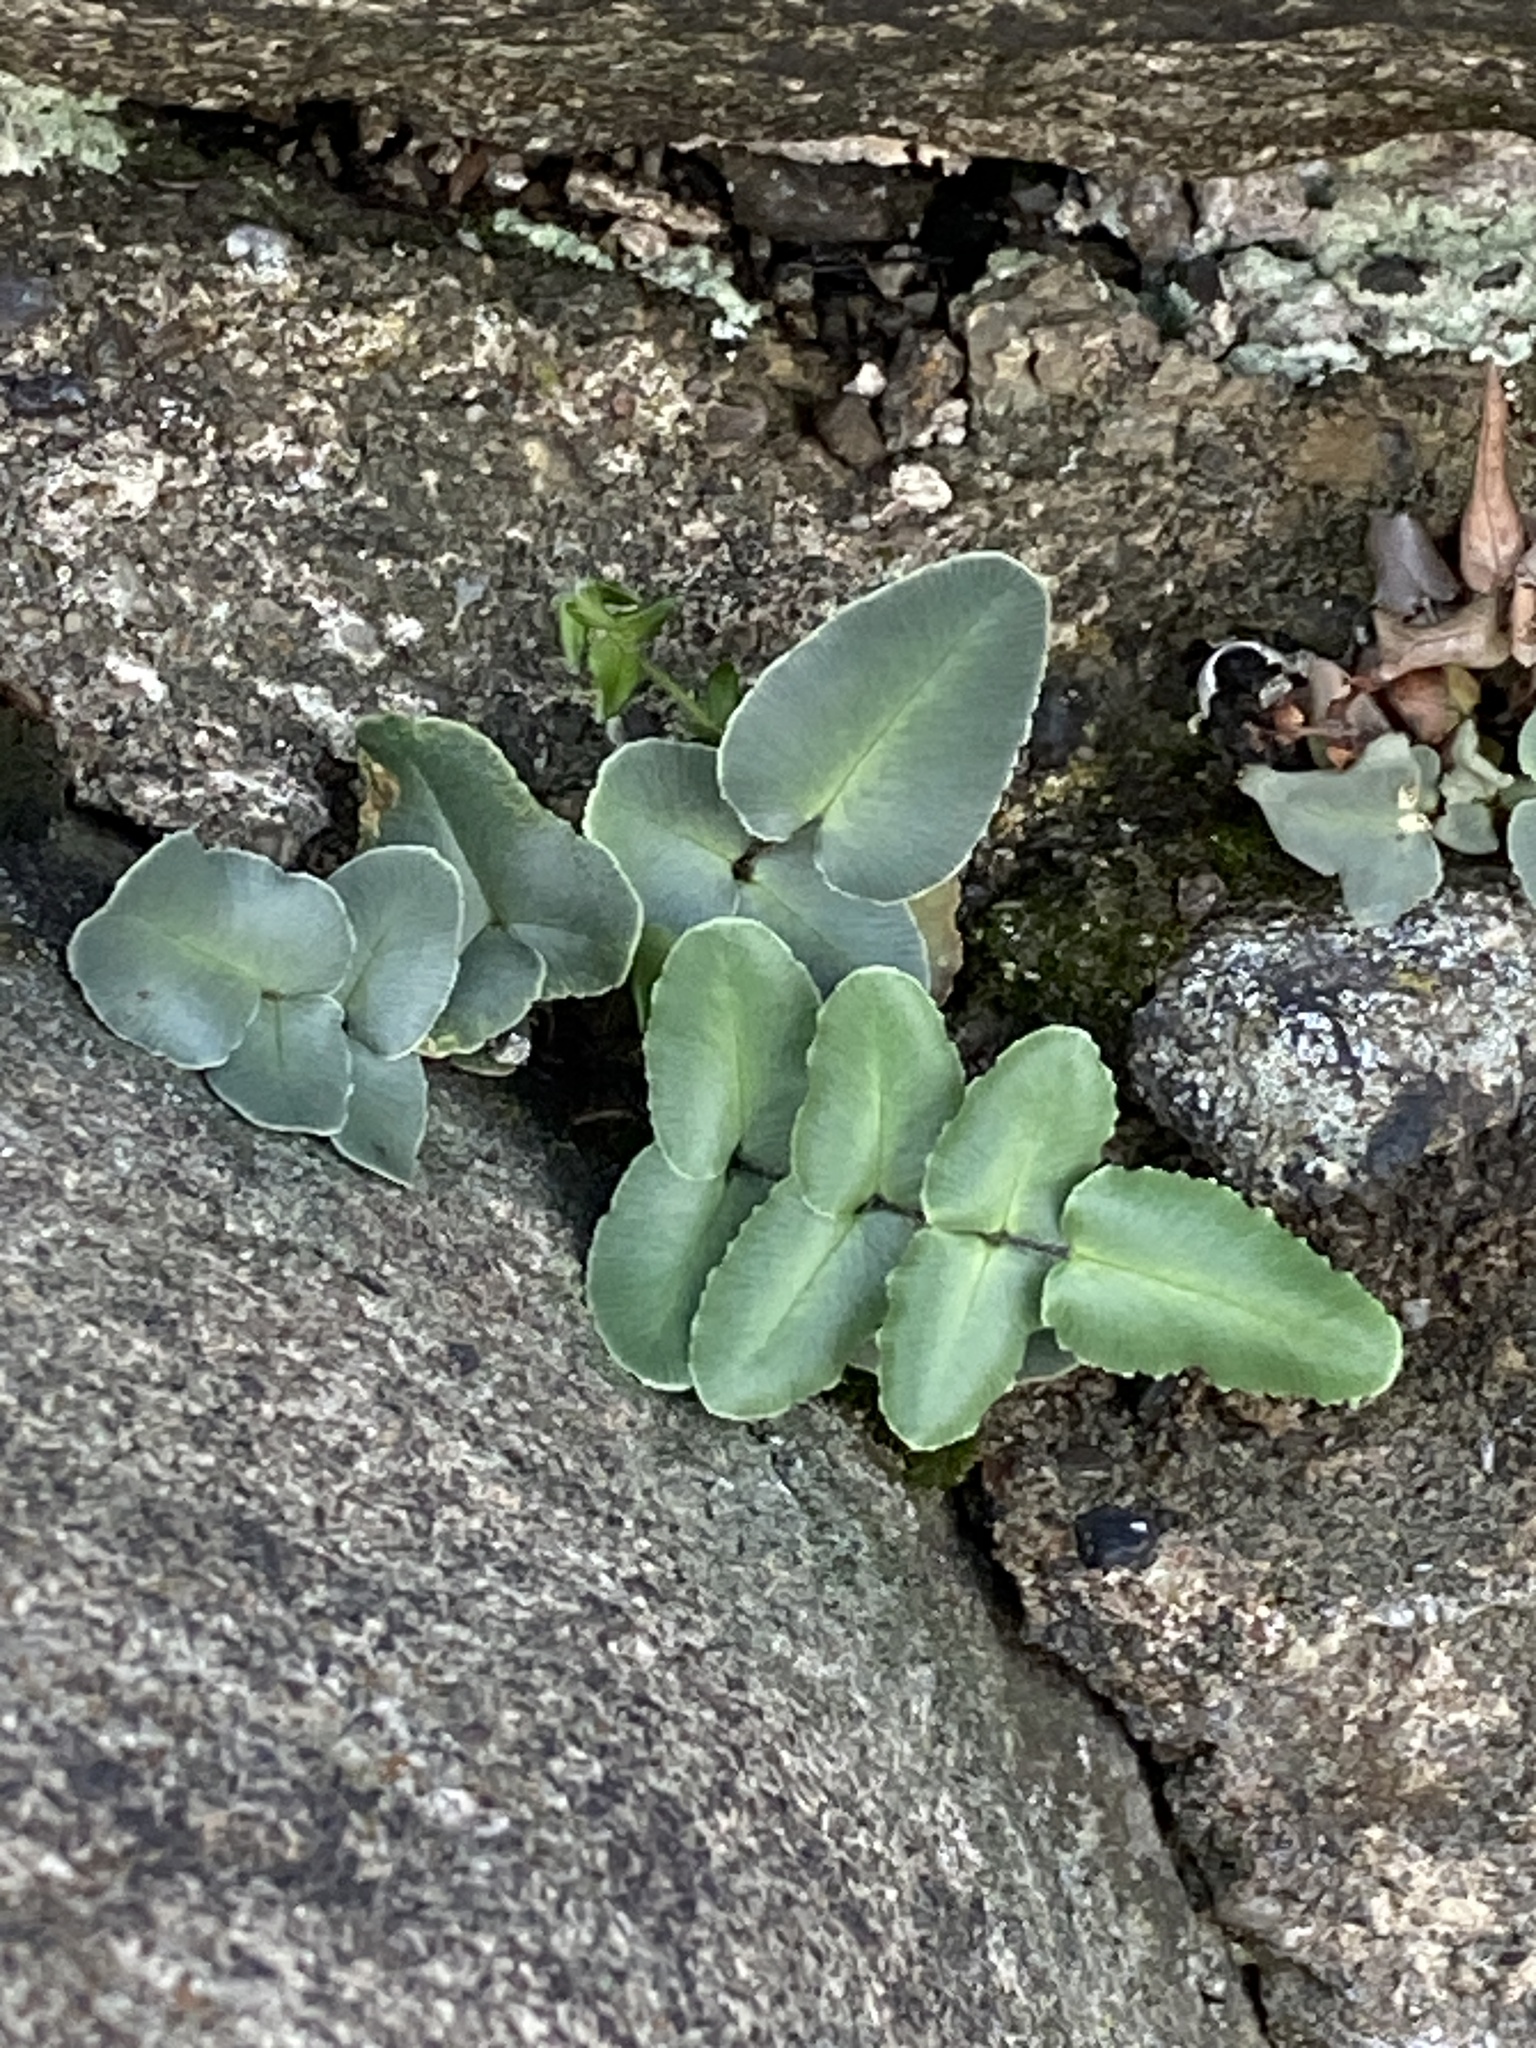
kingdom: Plantae
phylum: Tracheophyta
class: Polypodiopsida
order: Polypodiales
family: Pteridaceae
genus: Pellaea
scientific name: Pellaea atropurpurea
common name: Hairy cliffbrake
